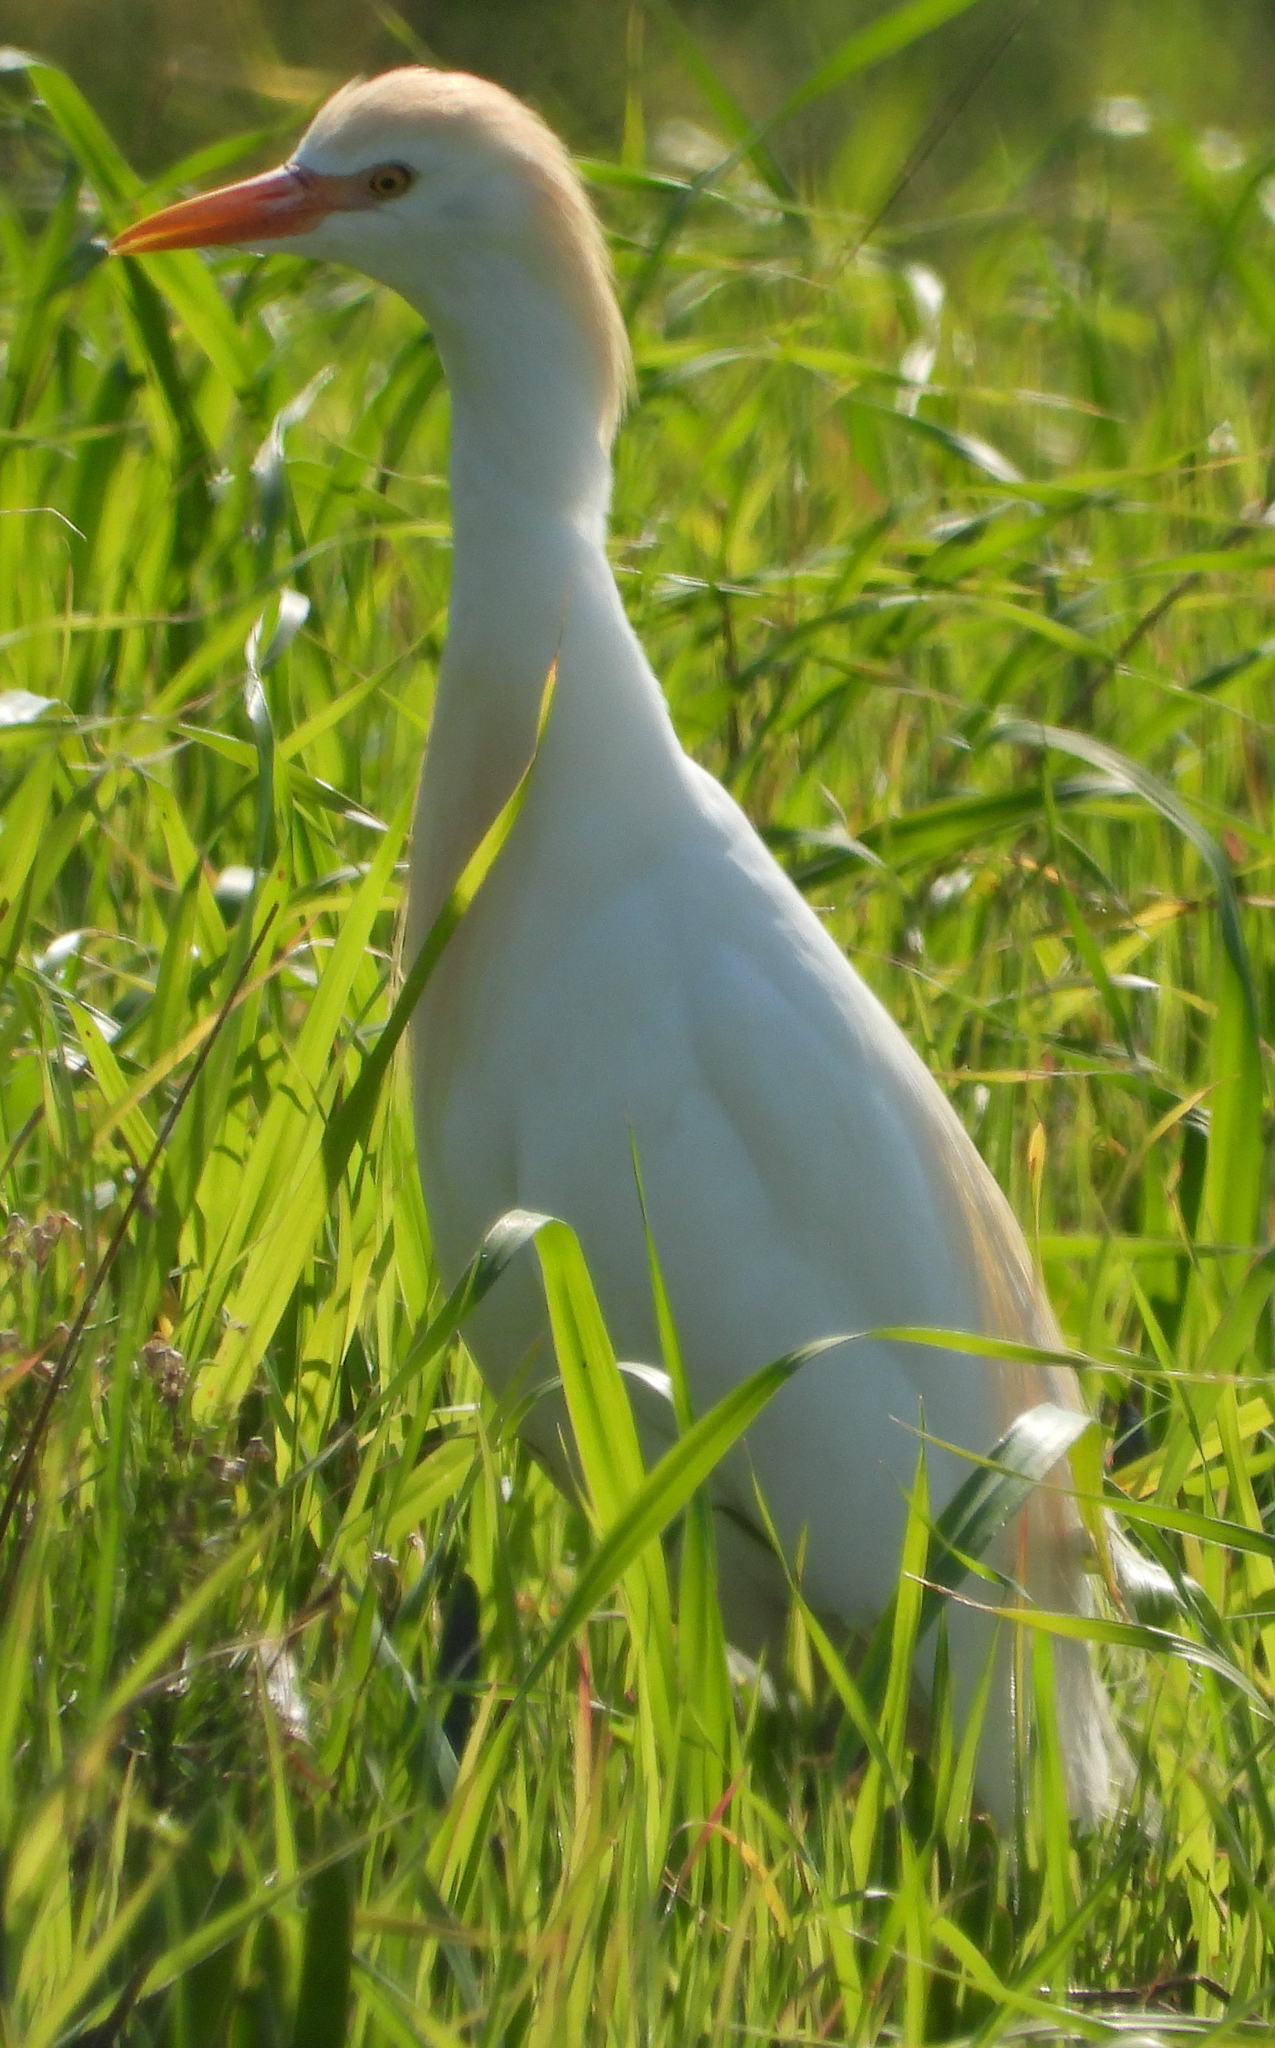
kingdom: Animalia
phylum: Chordata
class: Aves
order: Pelecaniformes
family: Ardeidae
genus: Bubulcus
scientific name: Bubulcus ibis
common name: Cattle egret
